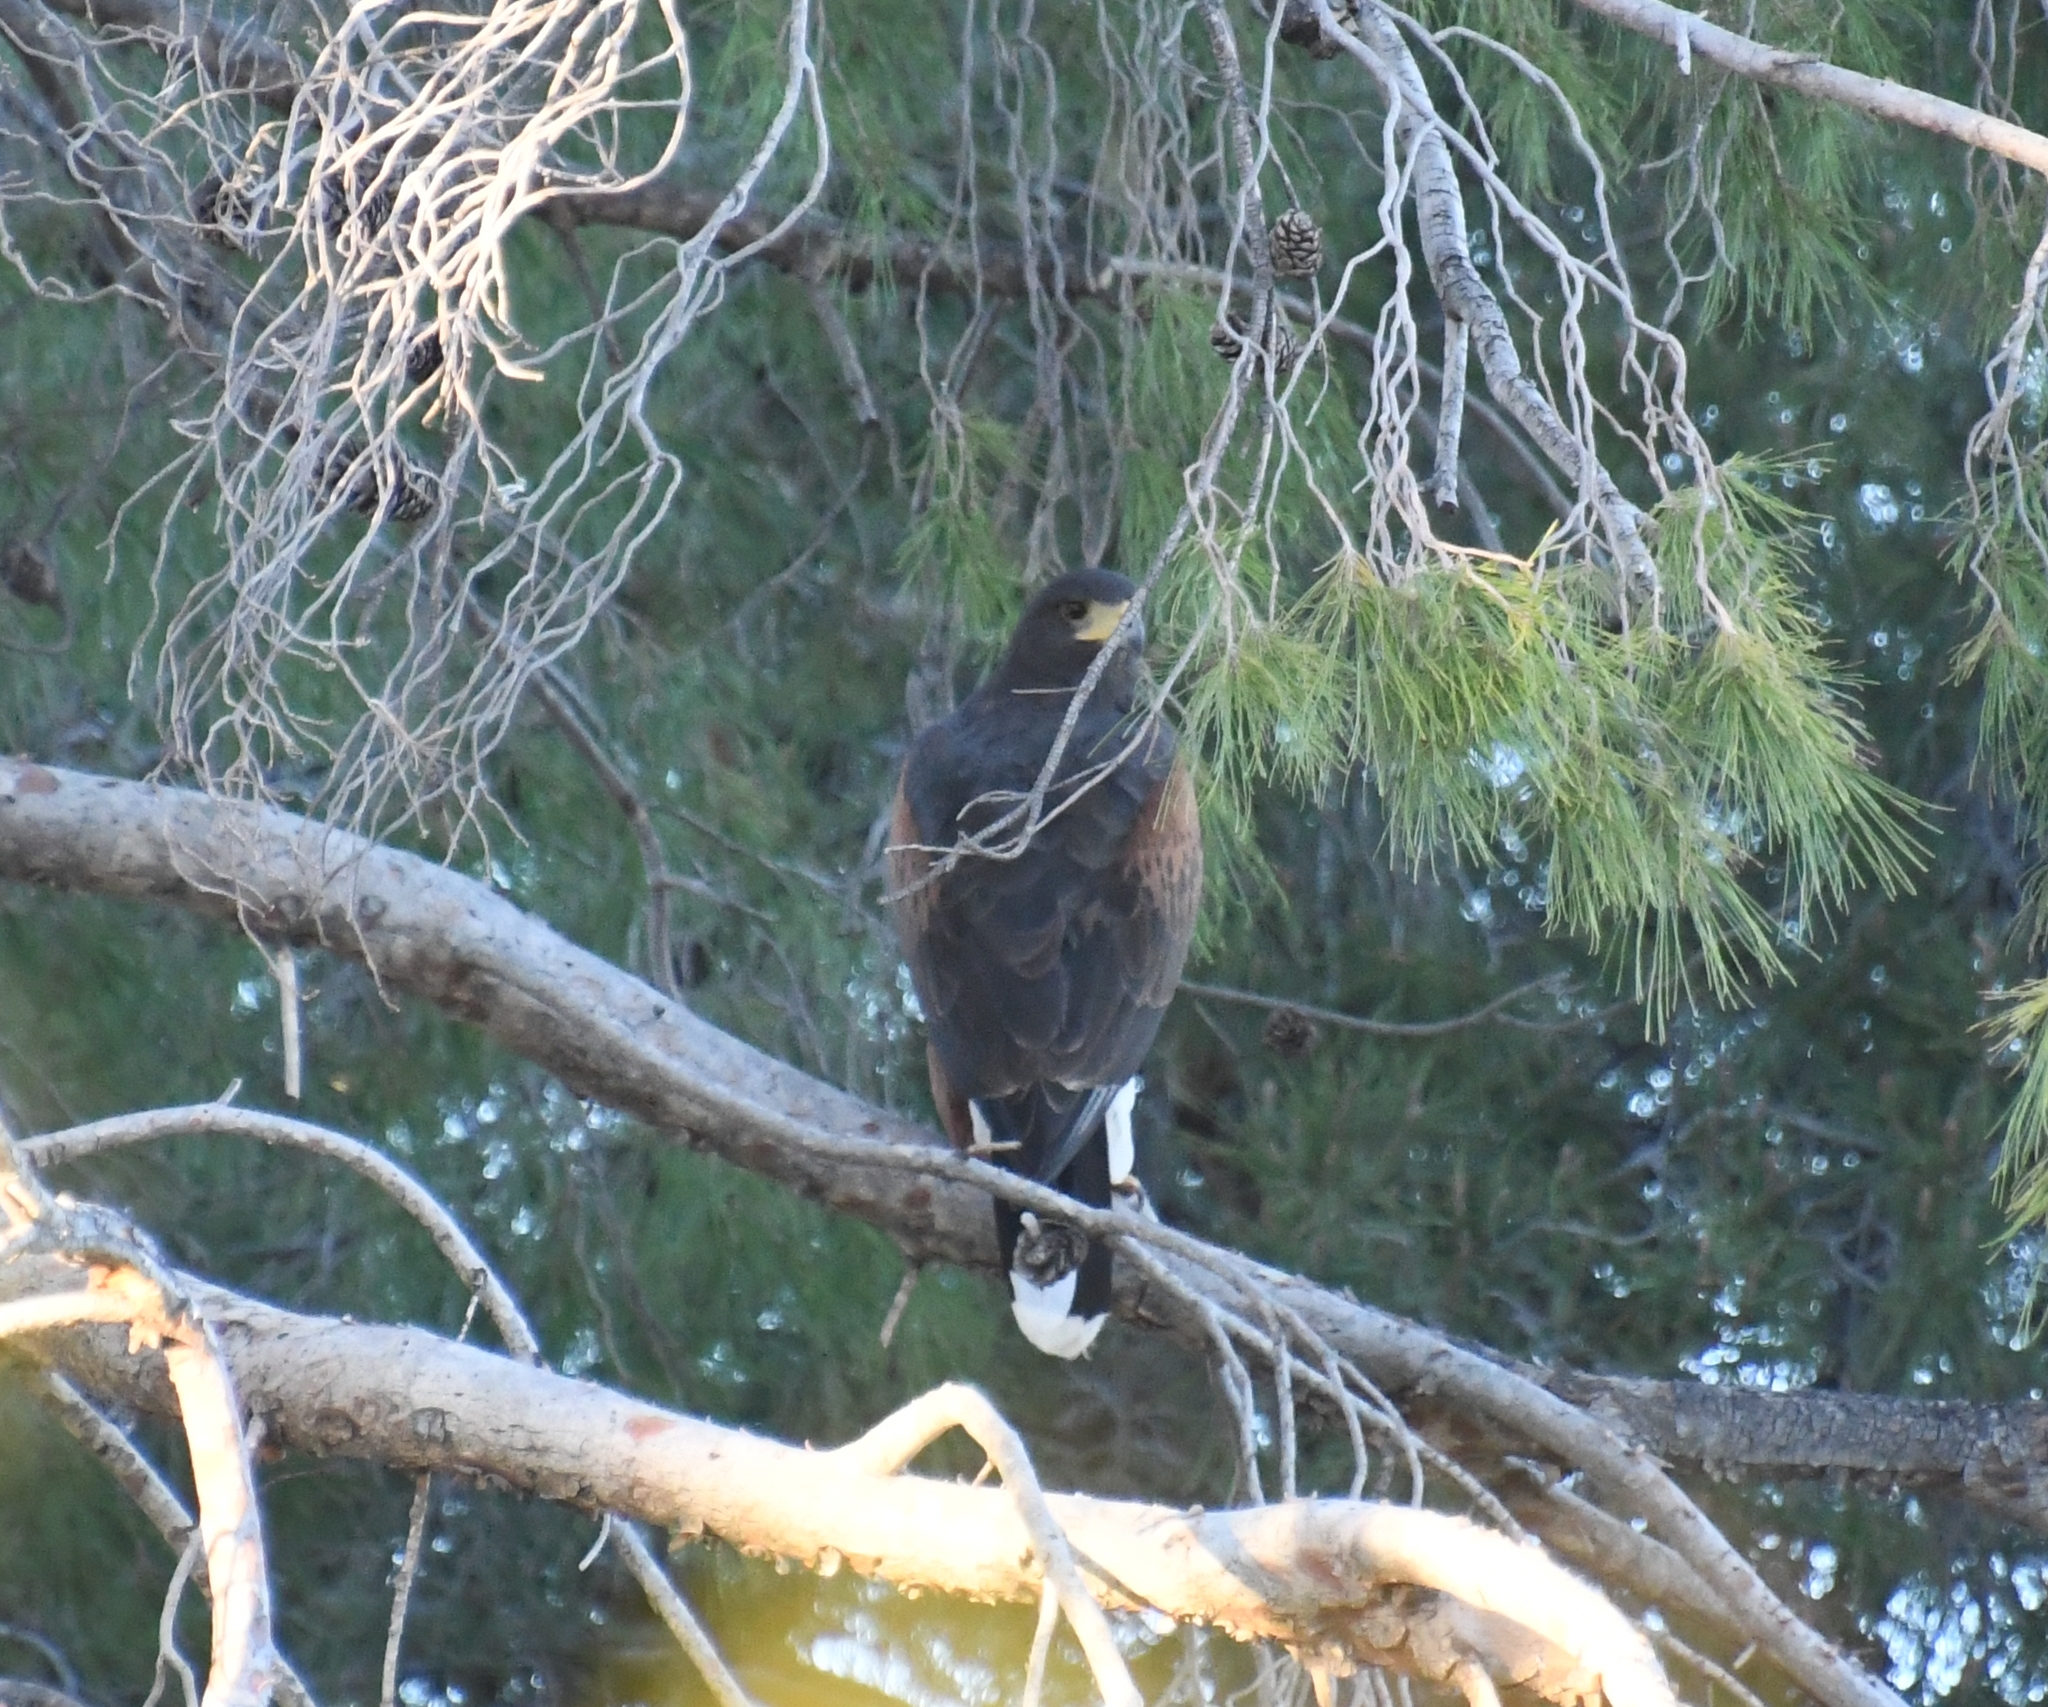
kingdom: Animalia
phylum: Chordata
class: Aves
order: Accipitriformes
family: Accipitridae
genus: Parabuteo
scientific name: Parabuteo unicinctus
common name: Harris's hawk
